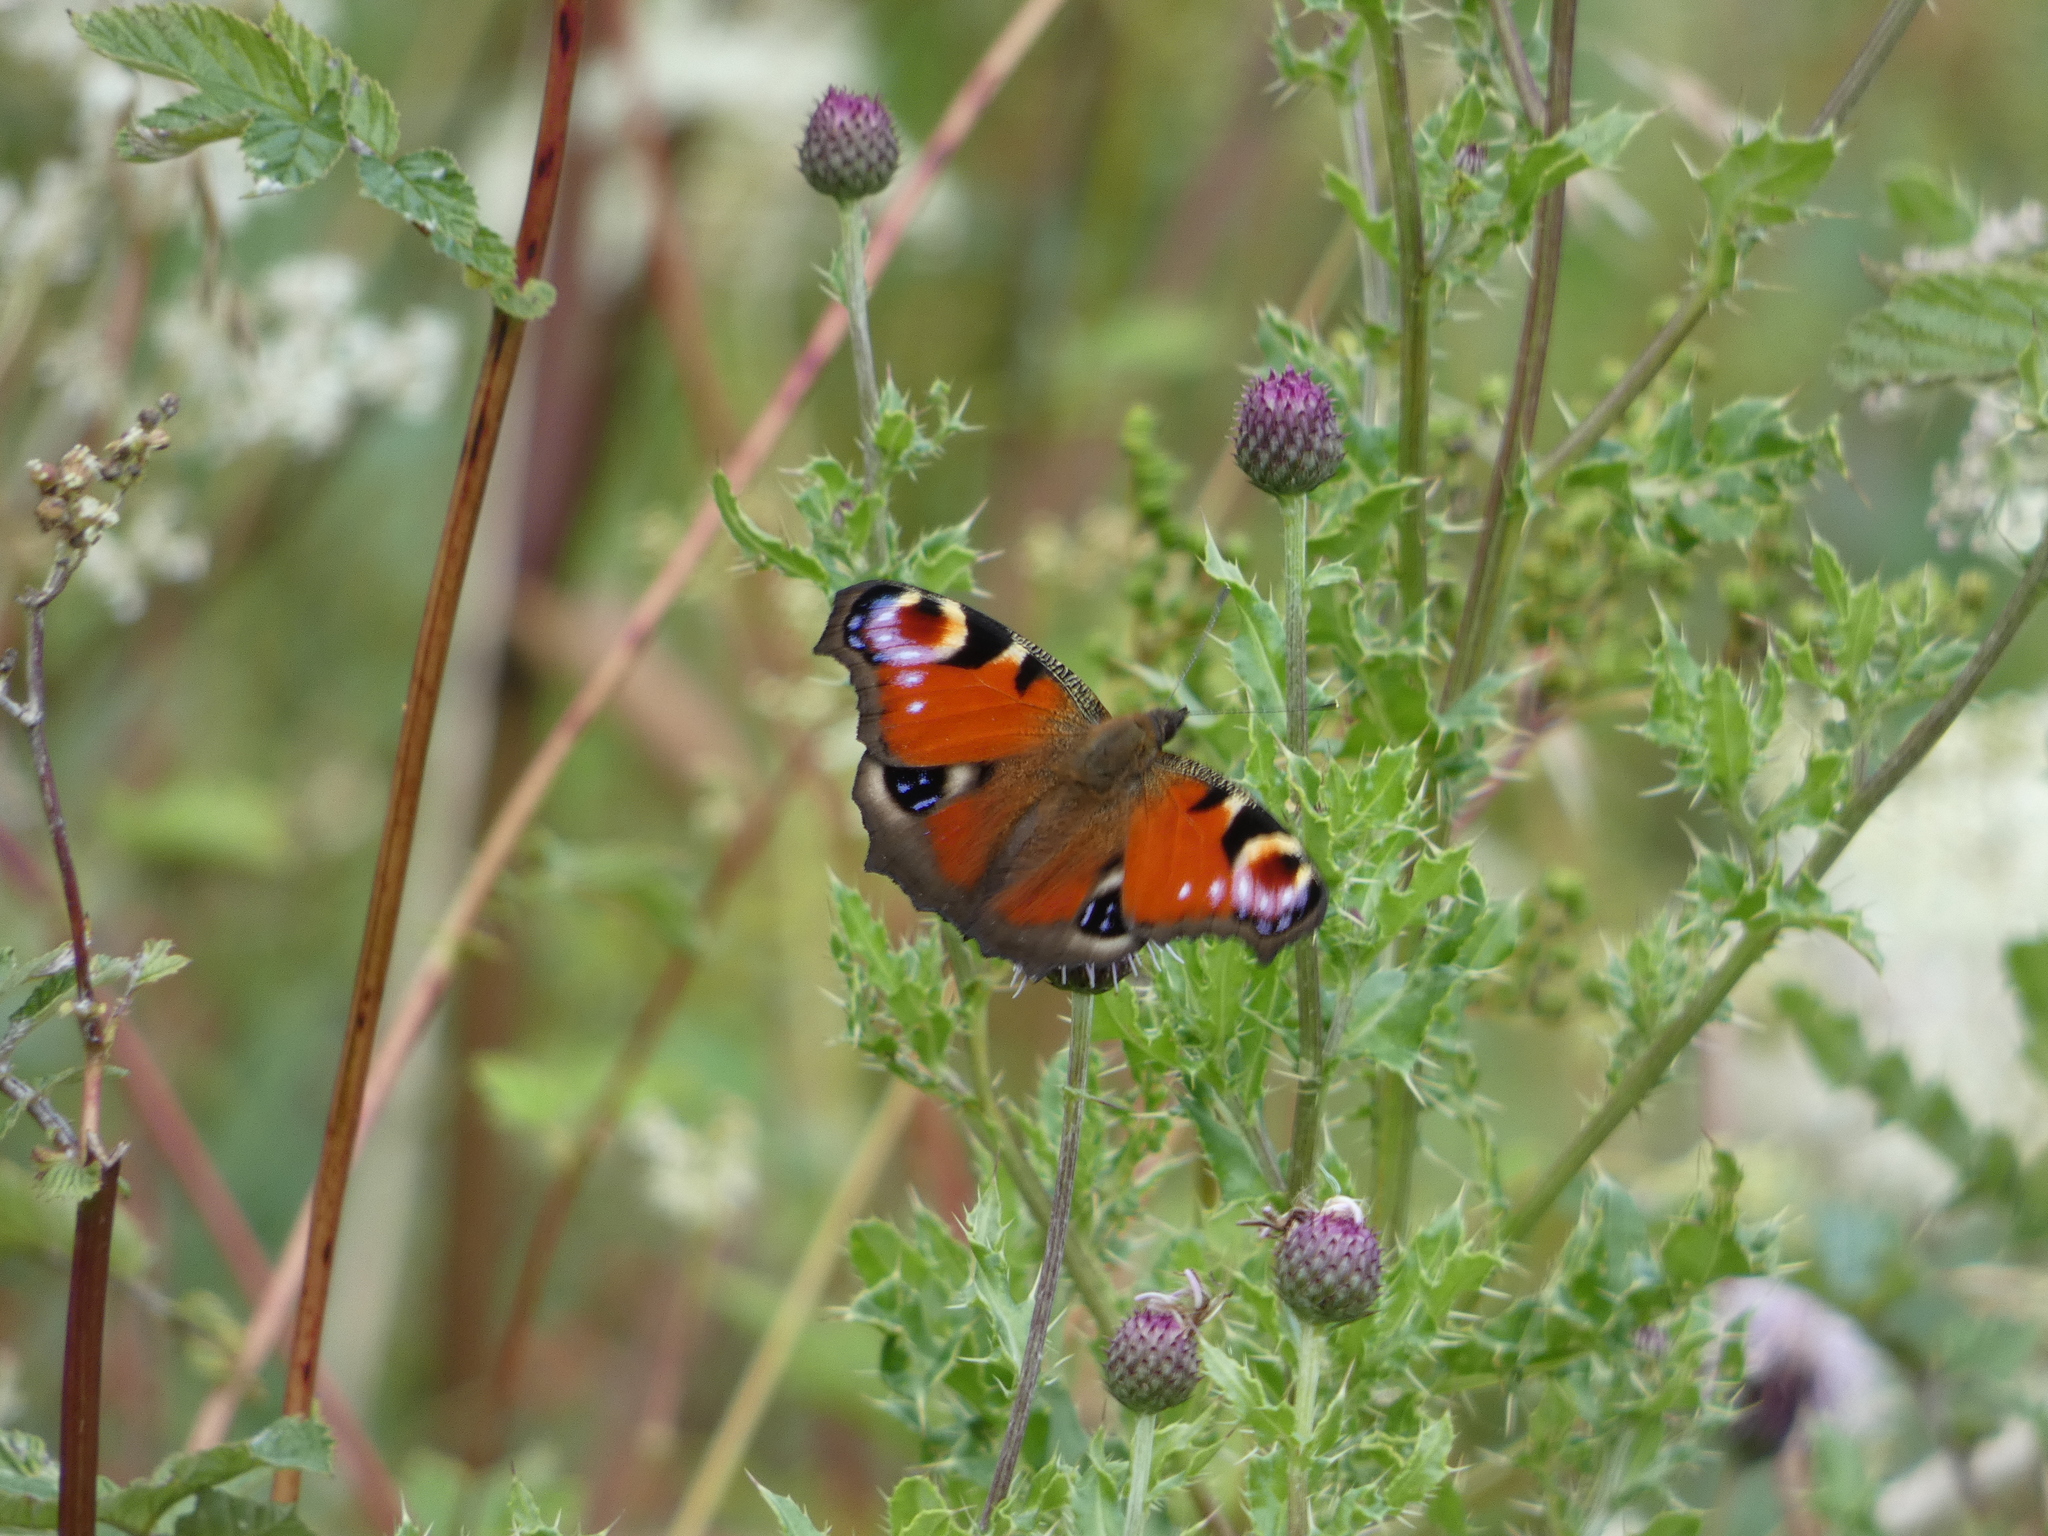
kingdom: Animalia
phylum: Arthropoda
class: Insecta
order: Lepidoptera
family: Nymphalidae
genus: Aglais
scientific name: Aglais io
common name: Peacock
